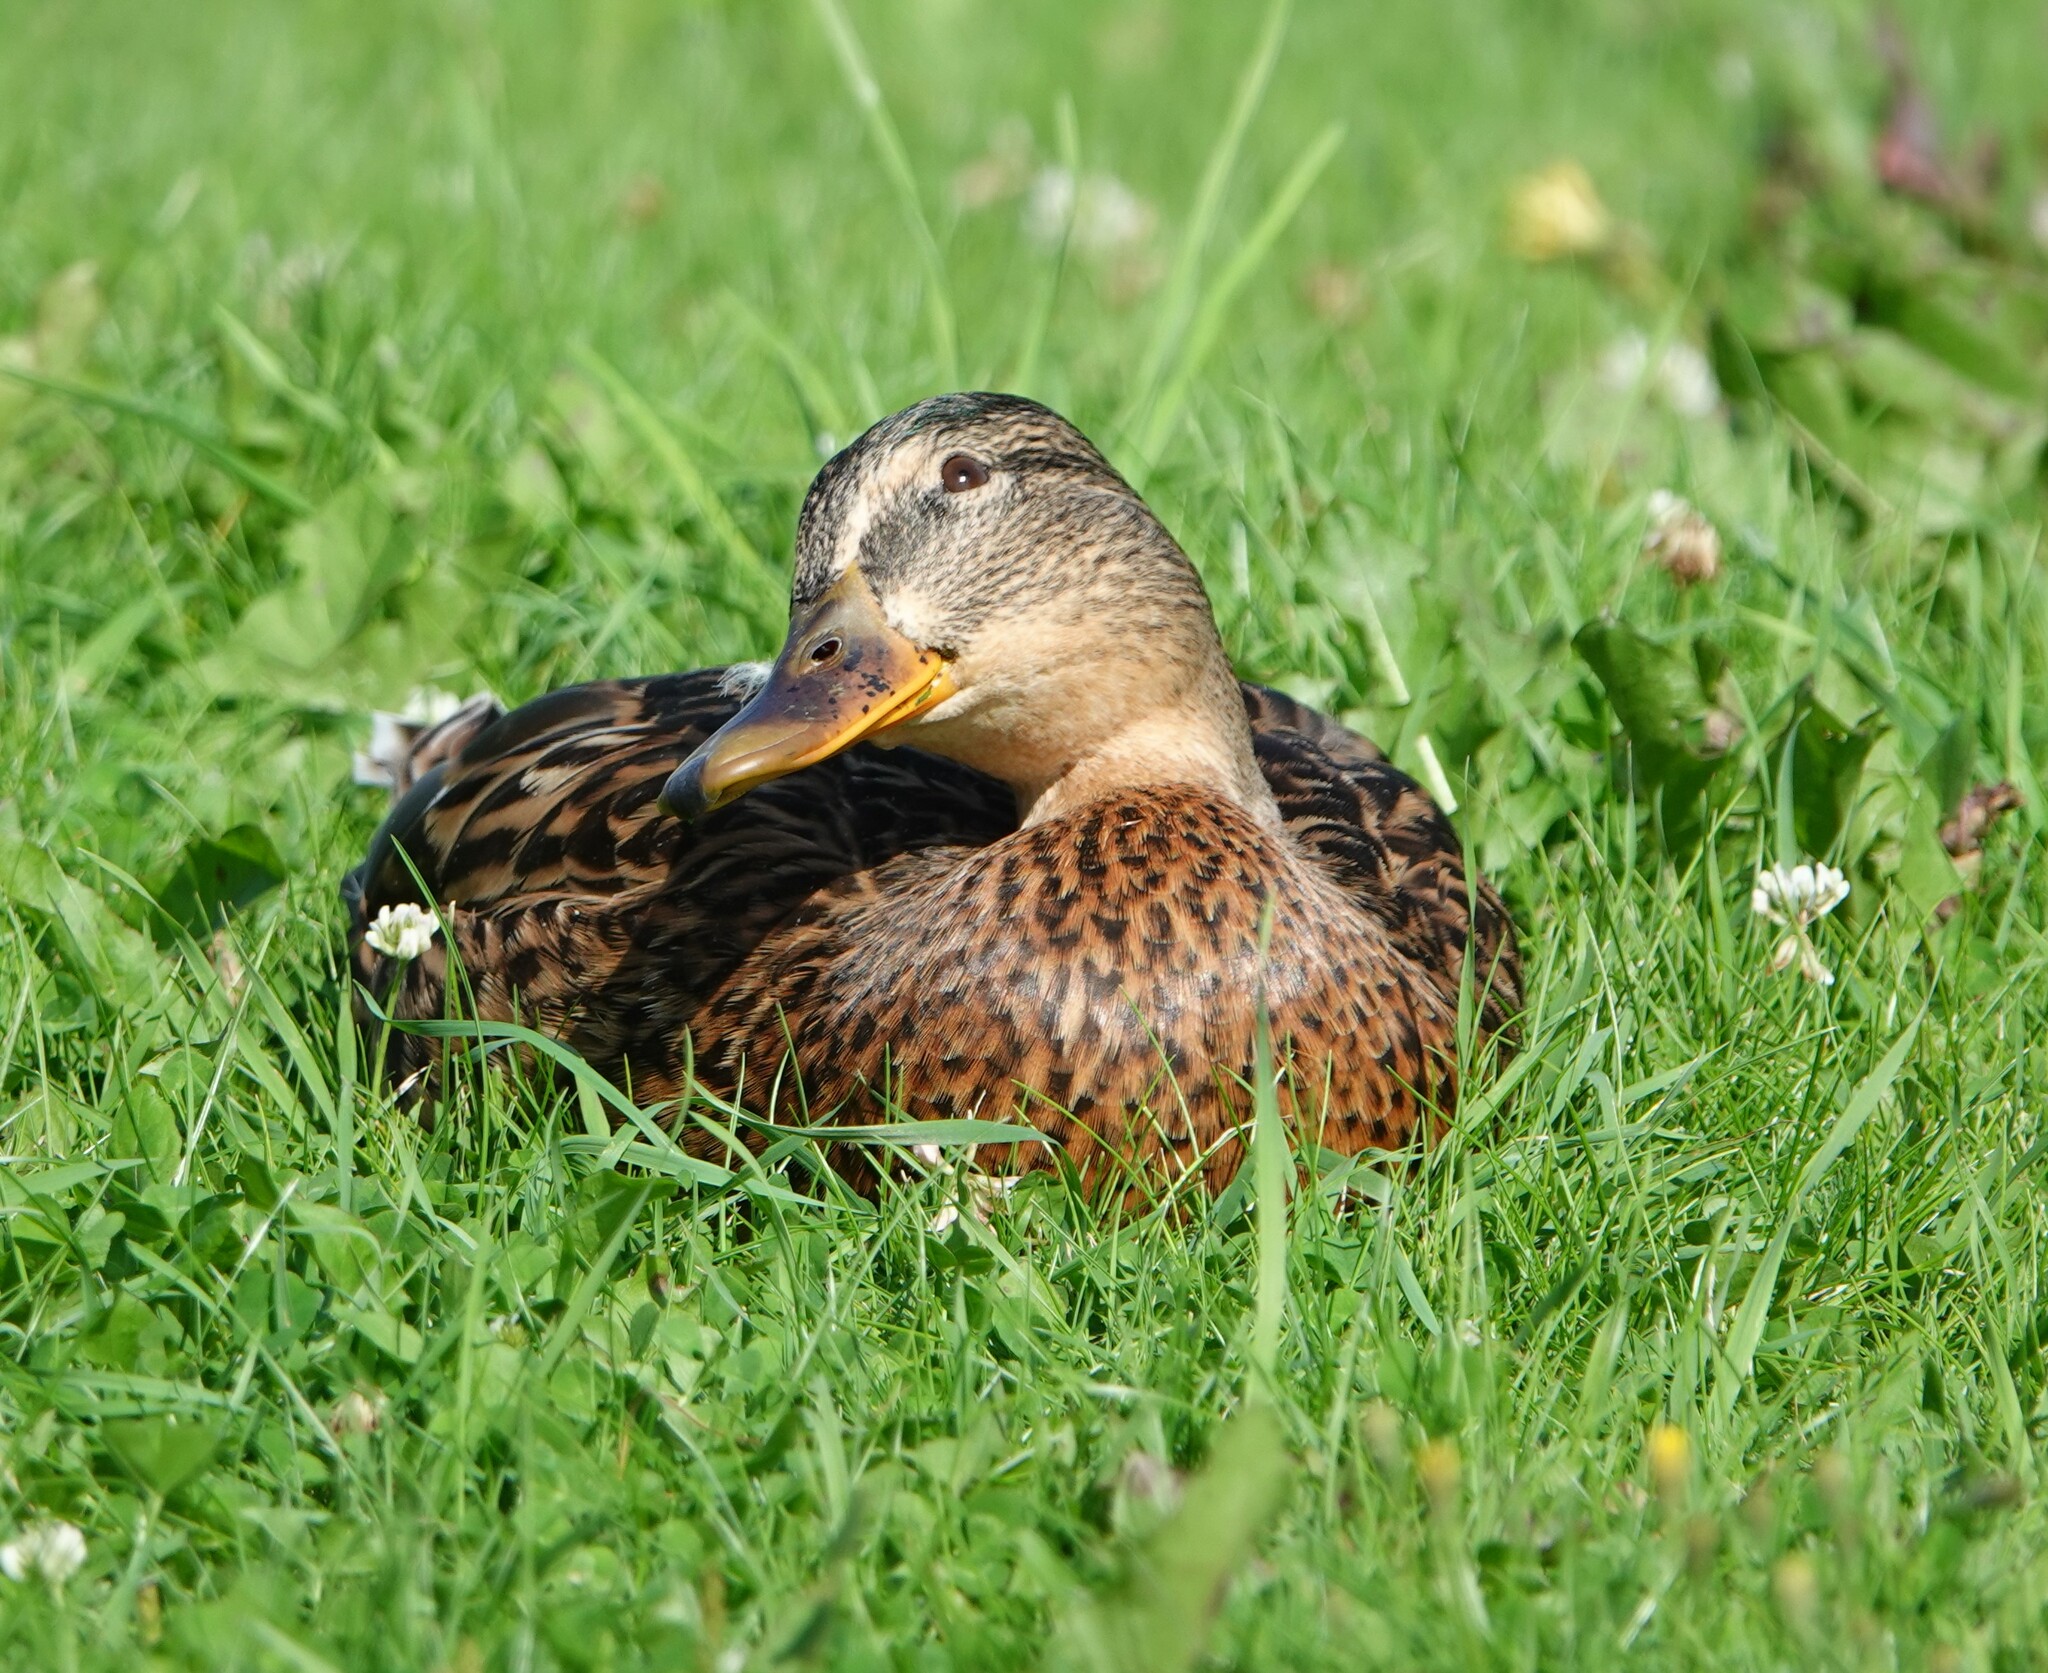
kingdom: Animalia
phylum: Chordata
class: Aves
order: Anseriformes
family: Anatidae
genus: Anas
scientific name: Anas platyrhynchos
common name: Mallard
